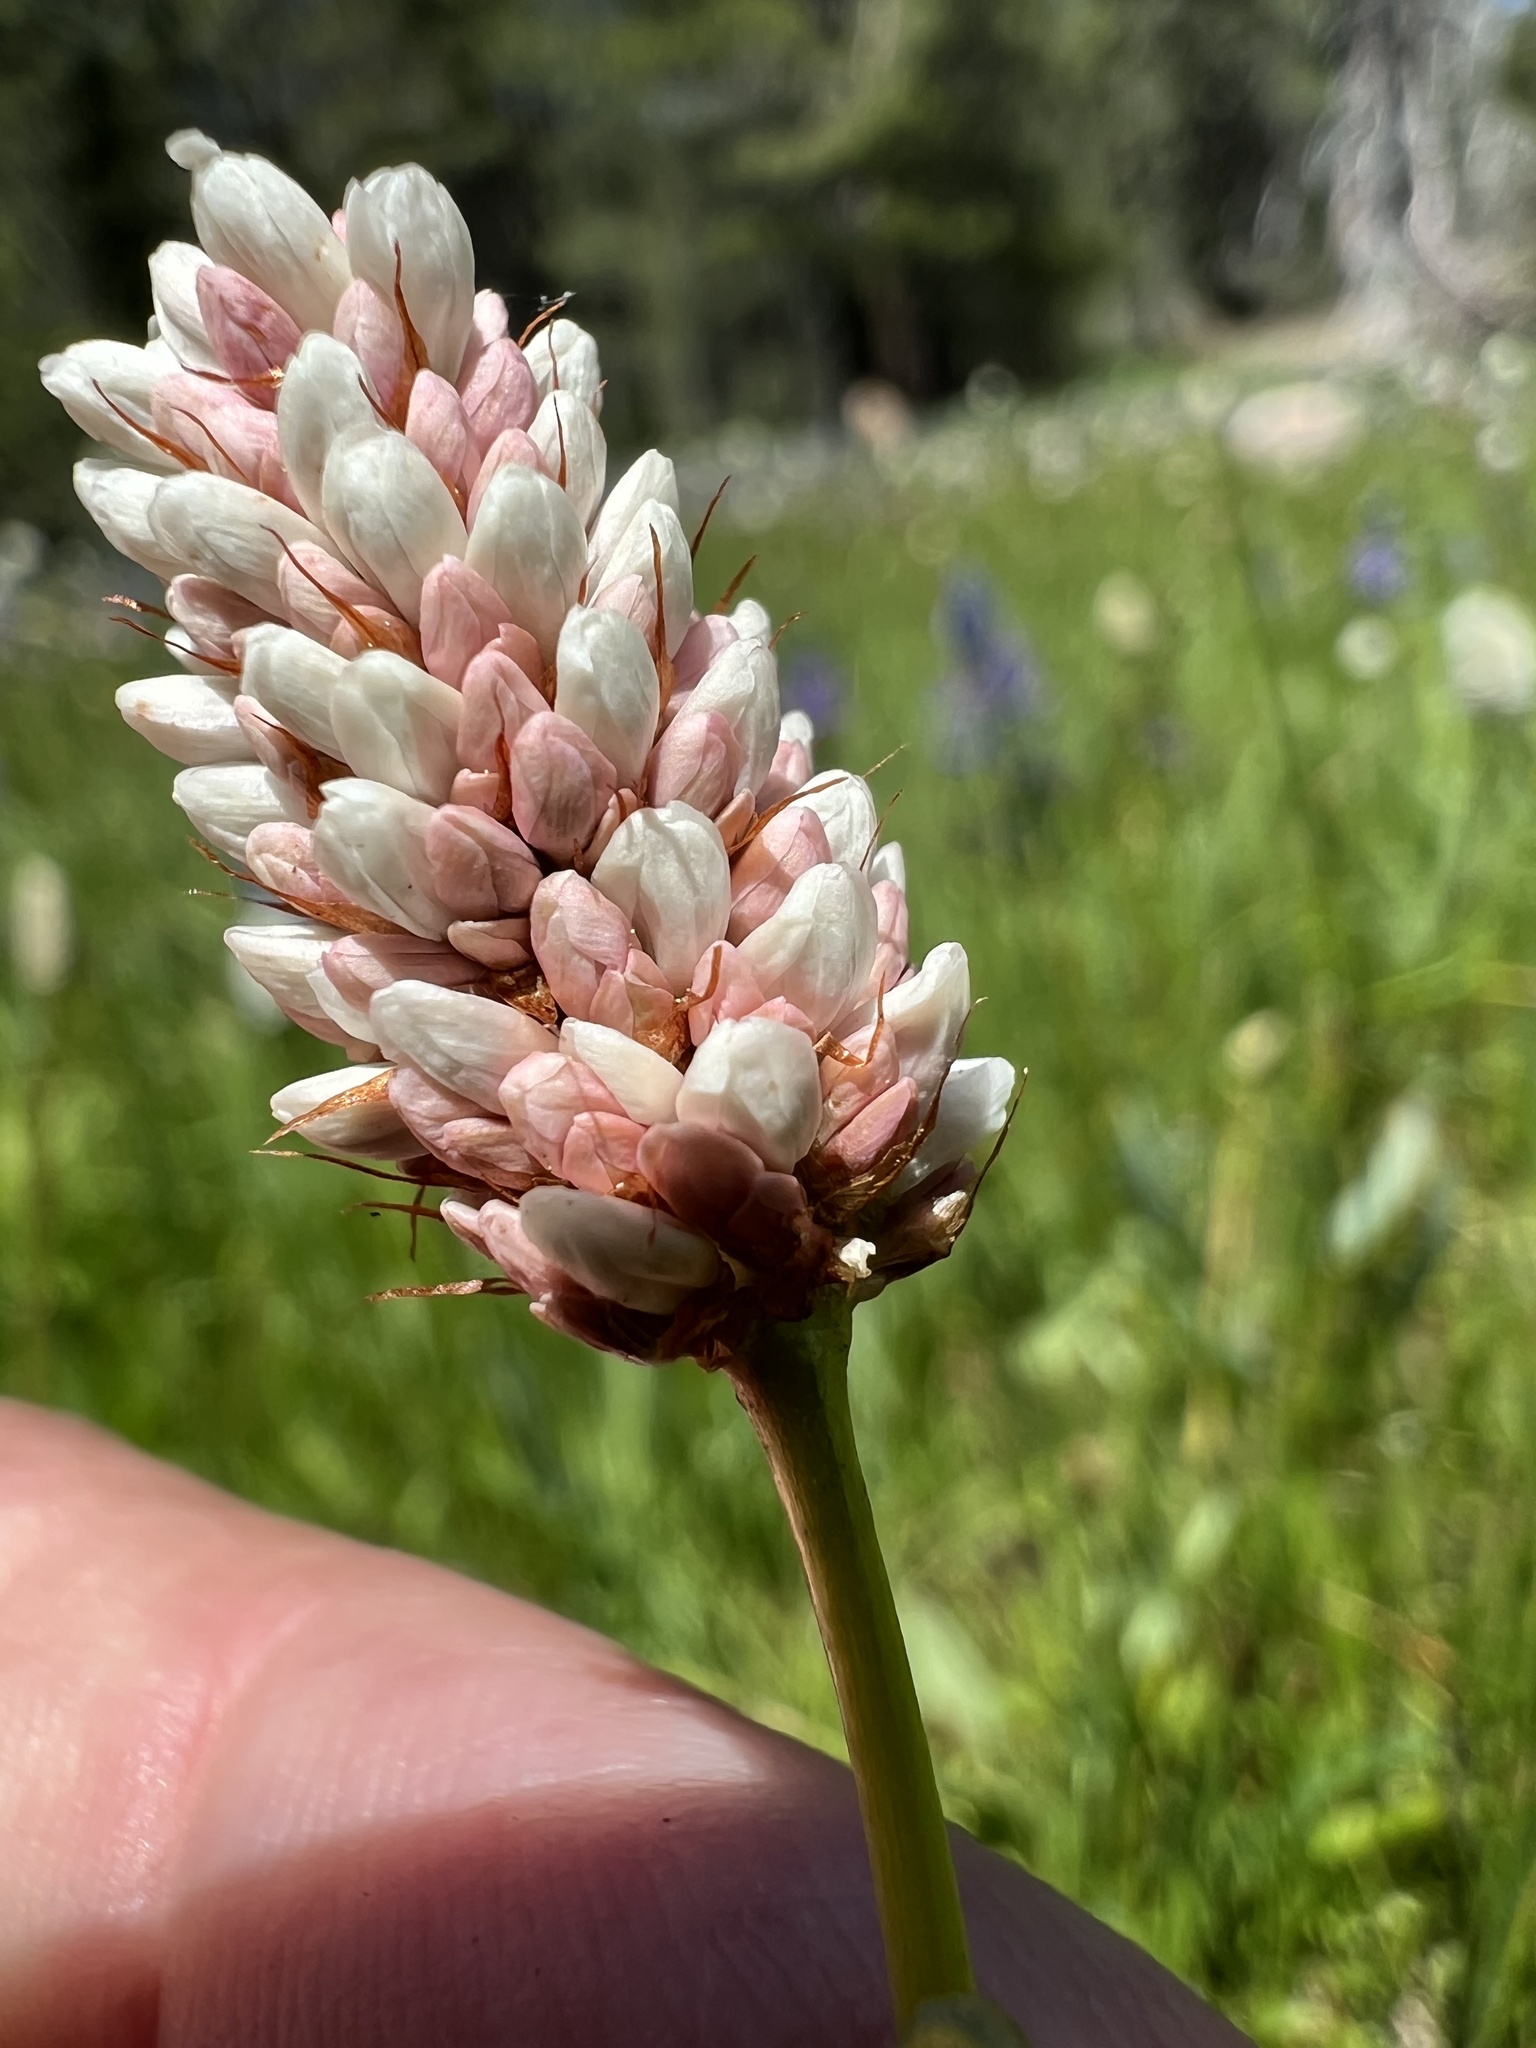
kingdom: Plantae
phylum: Tracheophyta
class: Magnoliopsida
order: Caryophyllales
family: Polygonaceae
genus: Bistorta
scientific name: Bistorta bistortoides
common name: American bistort
